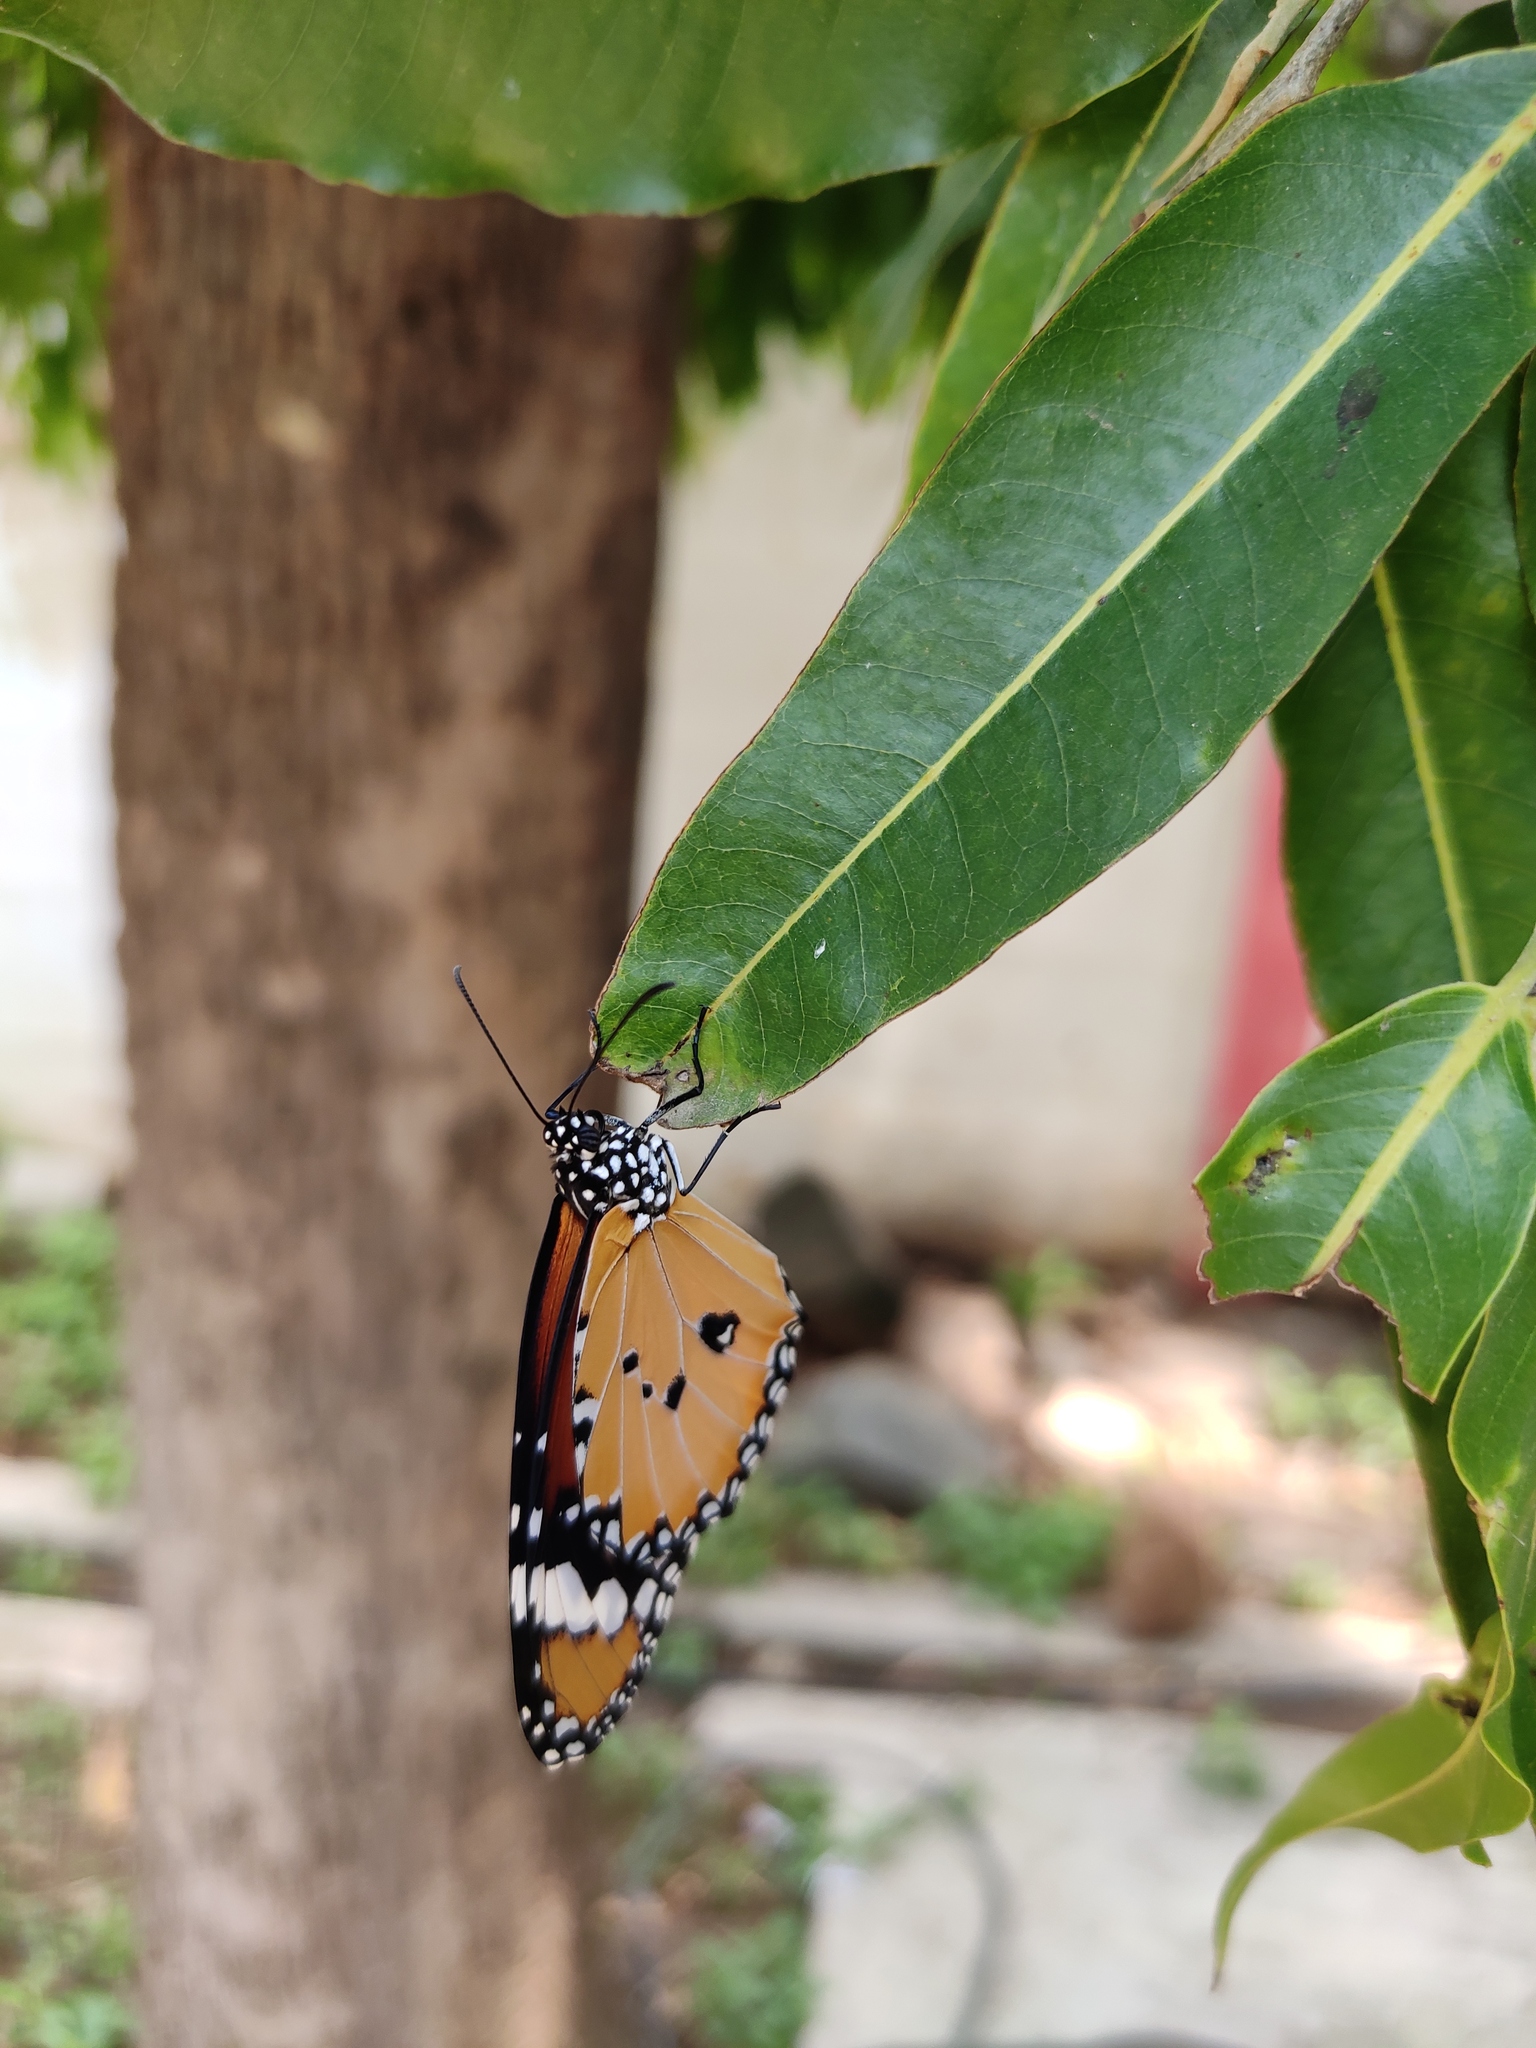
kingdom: Animalia
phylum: Arthropoda
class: Insecta
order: Lepidoptera
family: Nymphalidae
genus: Danaus
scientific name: Danaus chrysippus
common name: Plain tiger
